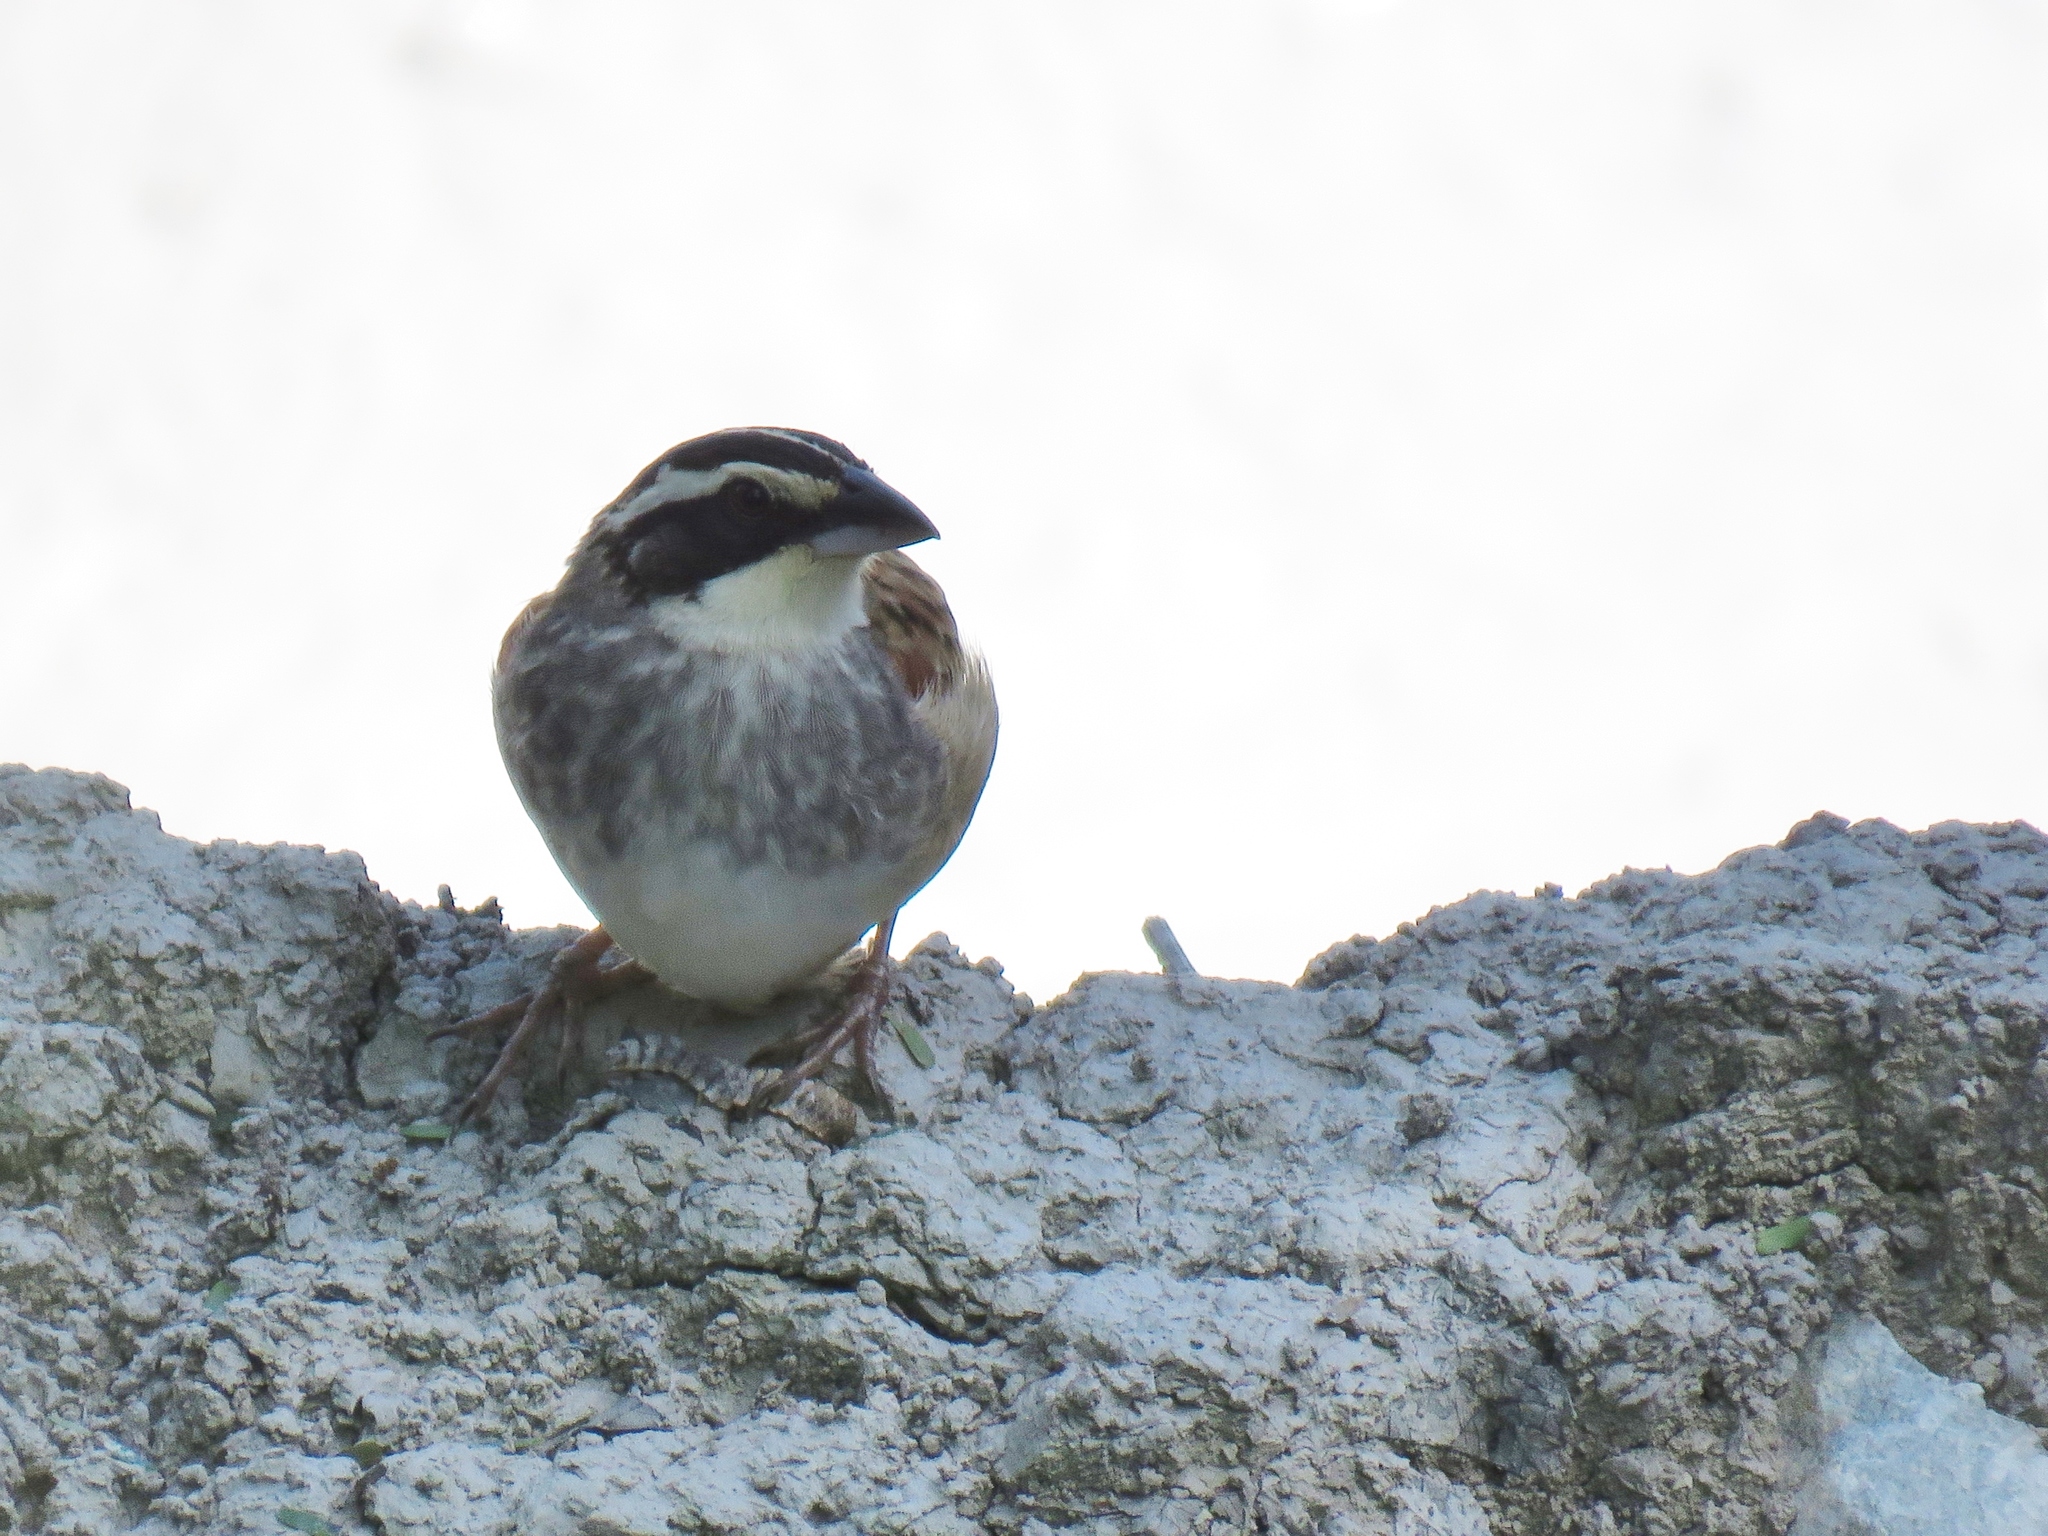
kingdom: Animalia
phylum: Chordata
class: Aves
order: Passeriformes
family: Passerellidae
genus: Peucaea
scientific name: Peucaea ruficauda
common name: Stripe-headed sparrow
